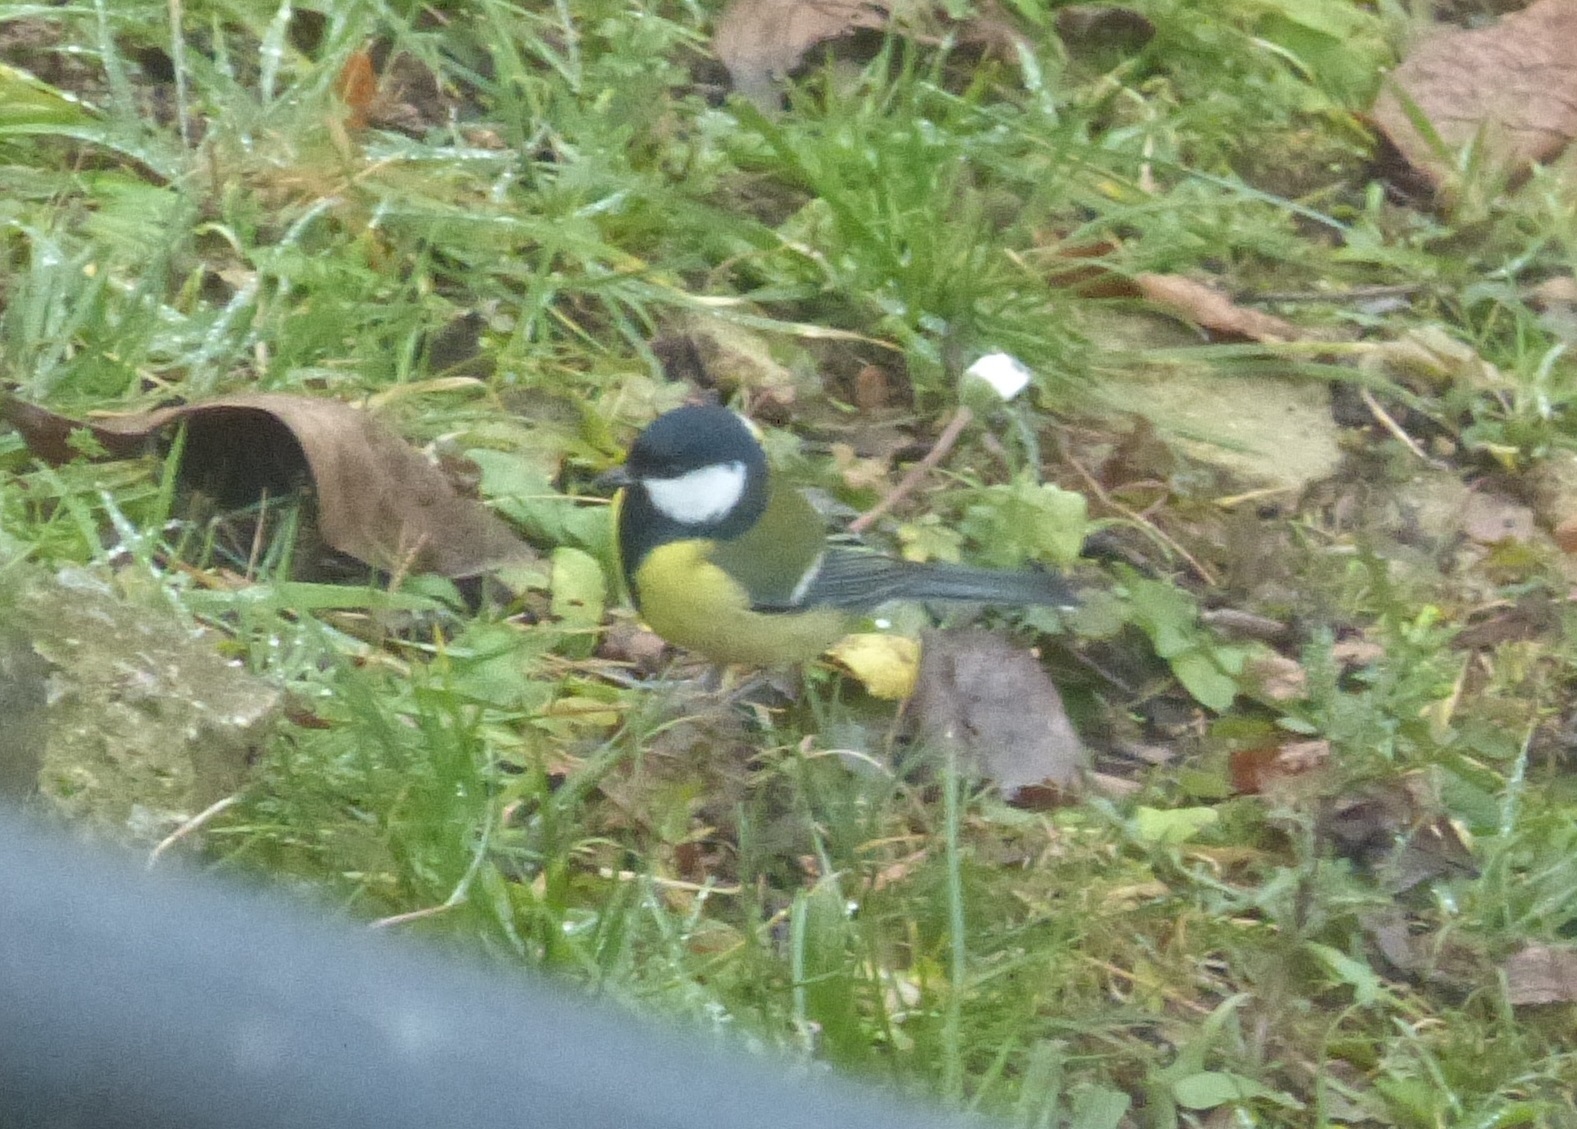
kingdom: Animalia
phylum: Chordata
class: Aves
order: Passeriformes
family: Paridae
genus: Parus
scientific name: Parus major
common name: Great tit
